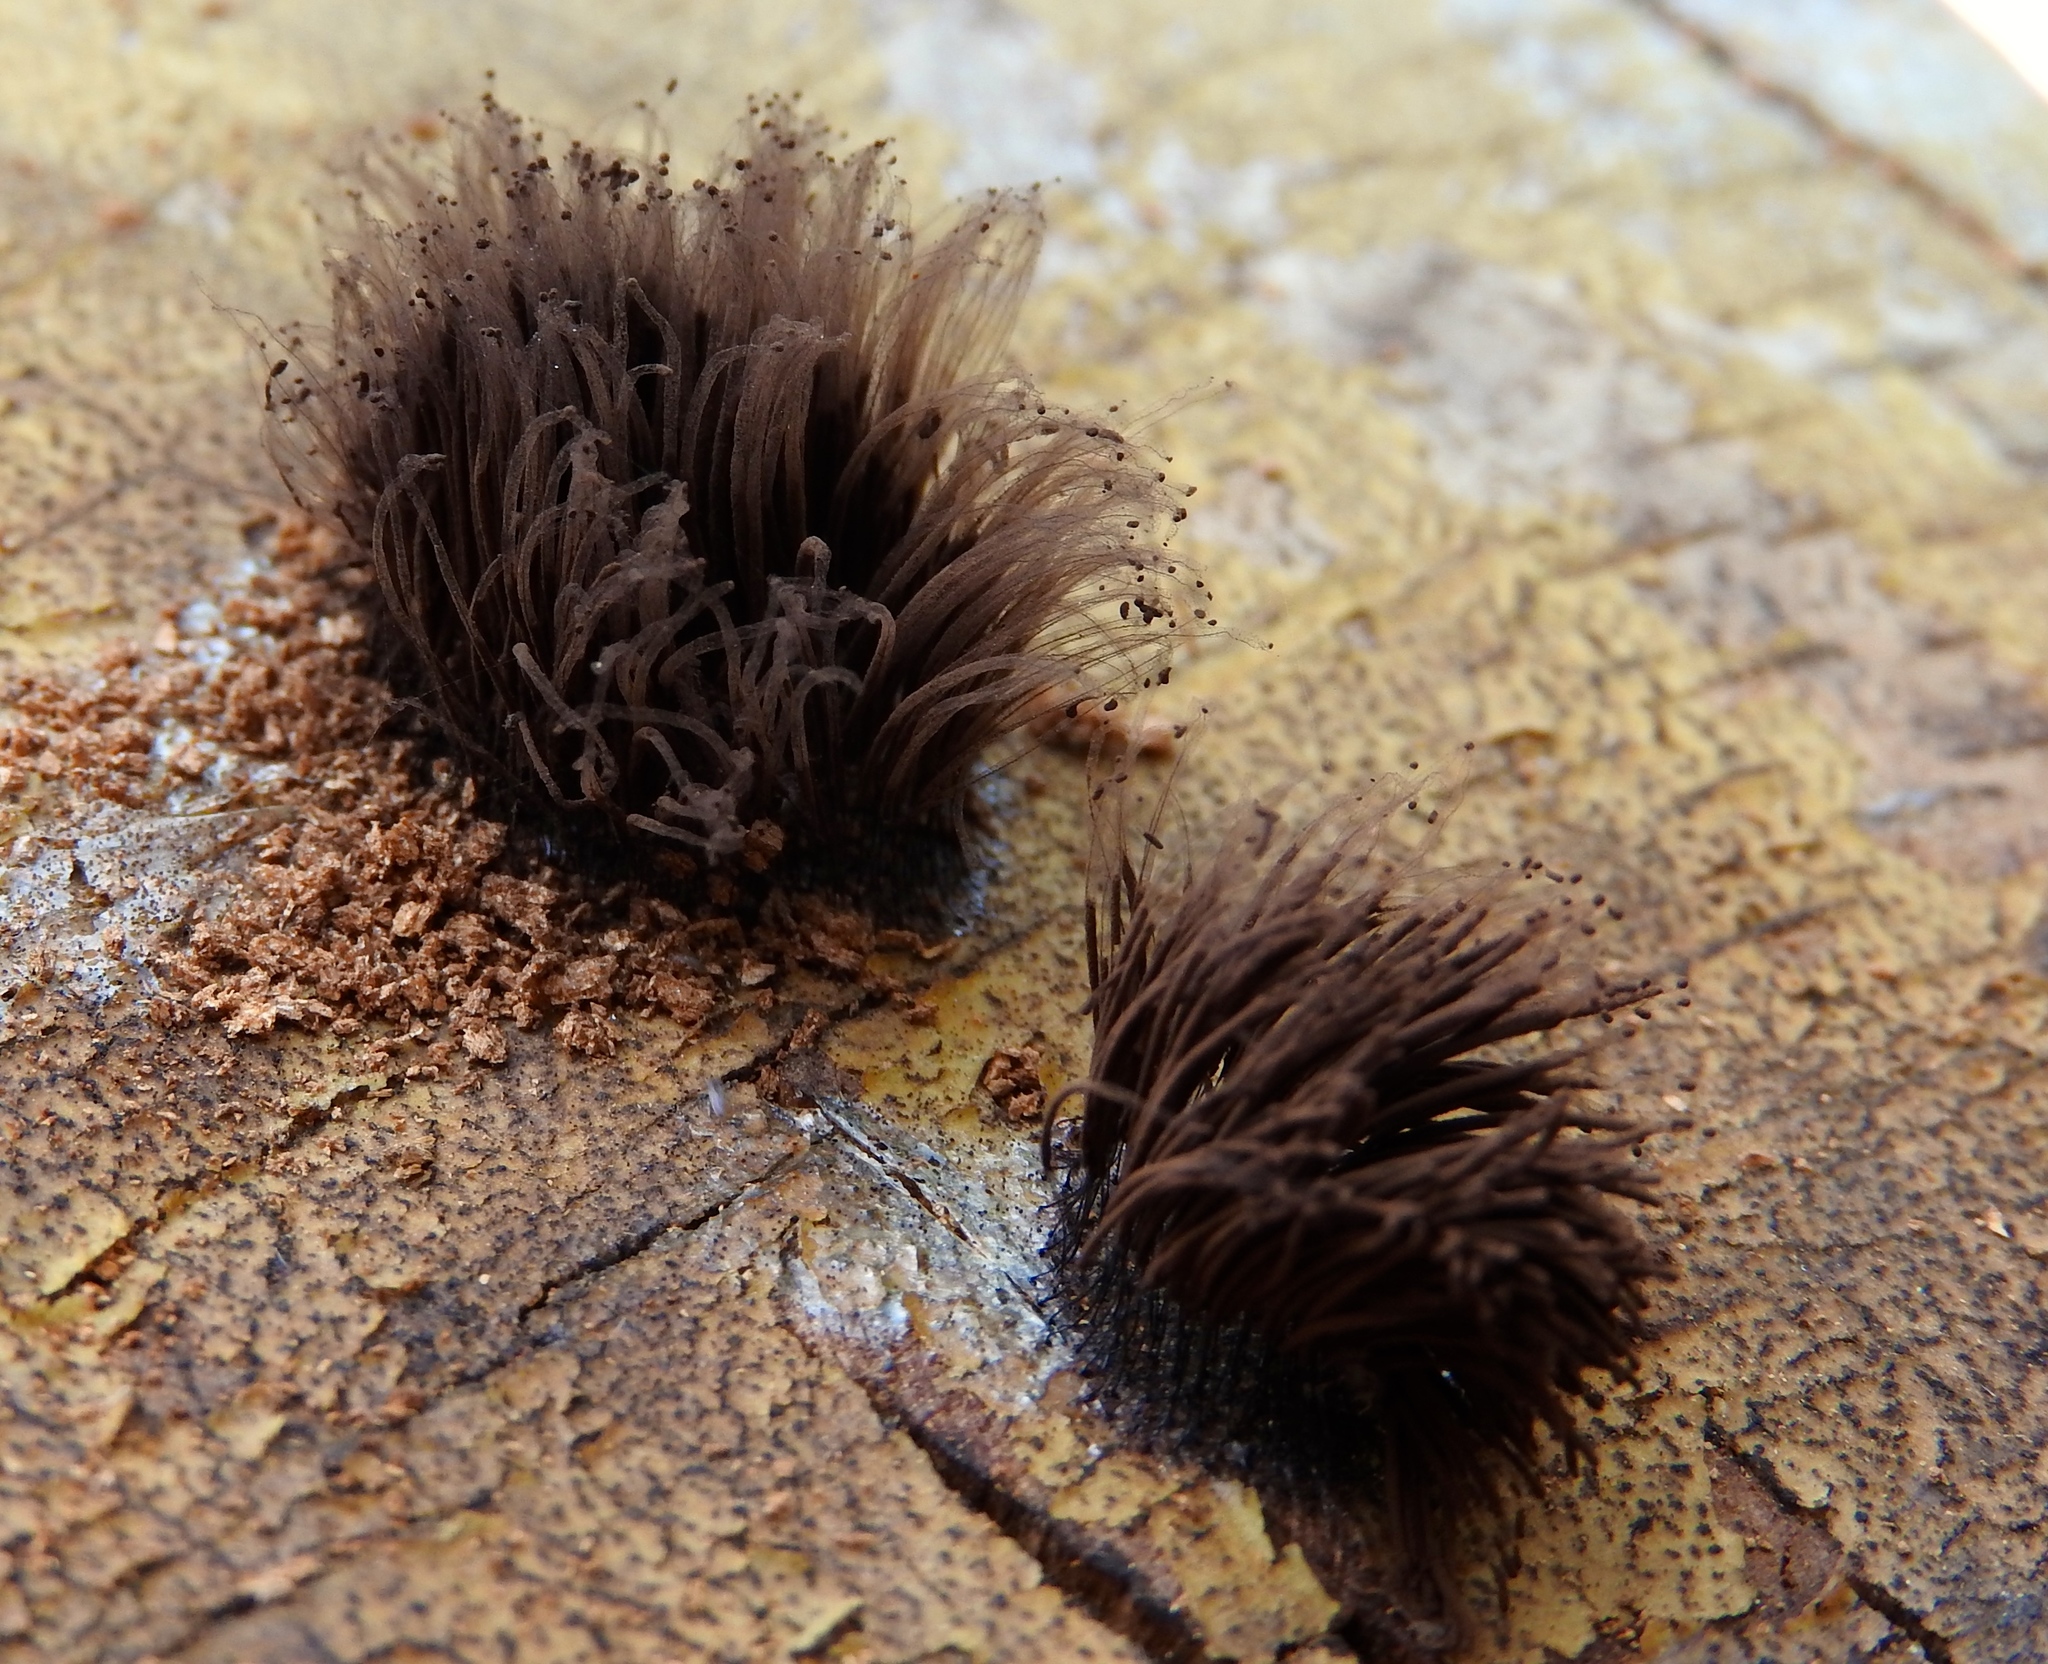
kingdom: Protozoa
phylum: Mycetozoa
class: Myxomycetes
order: Stemonitidales
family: Stemonitidaceae
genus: Stemonitis
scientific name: Stemonitis
